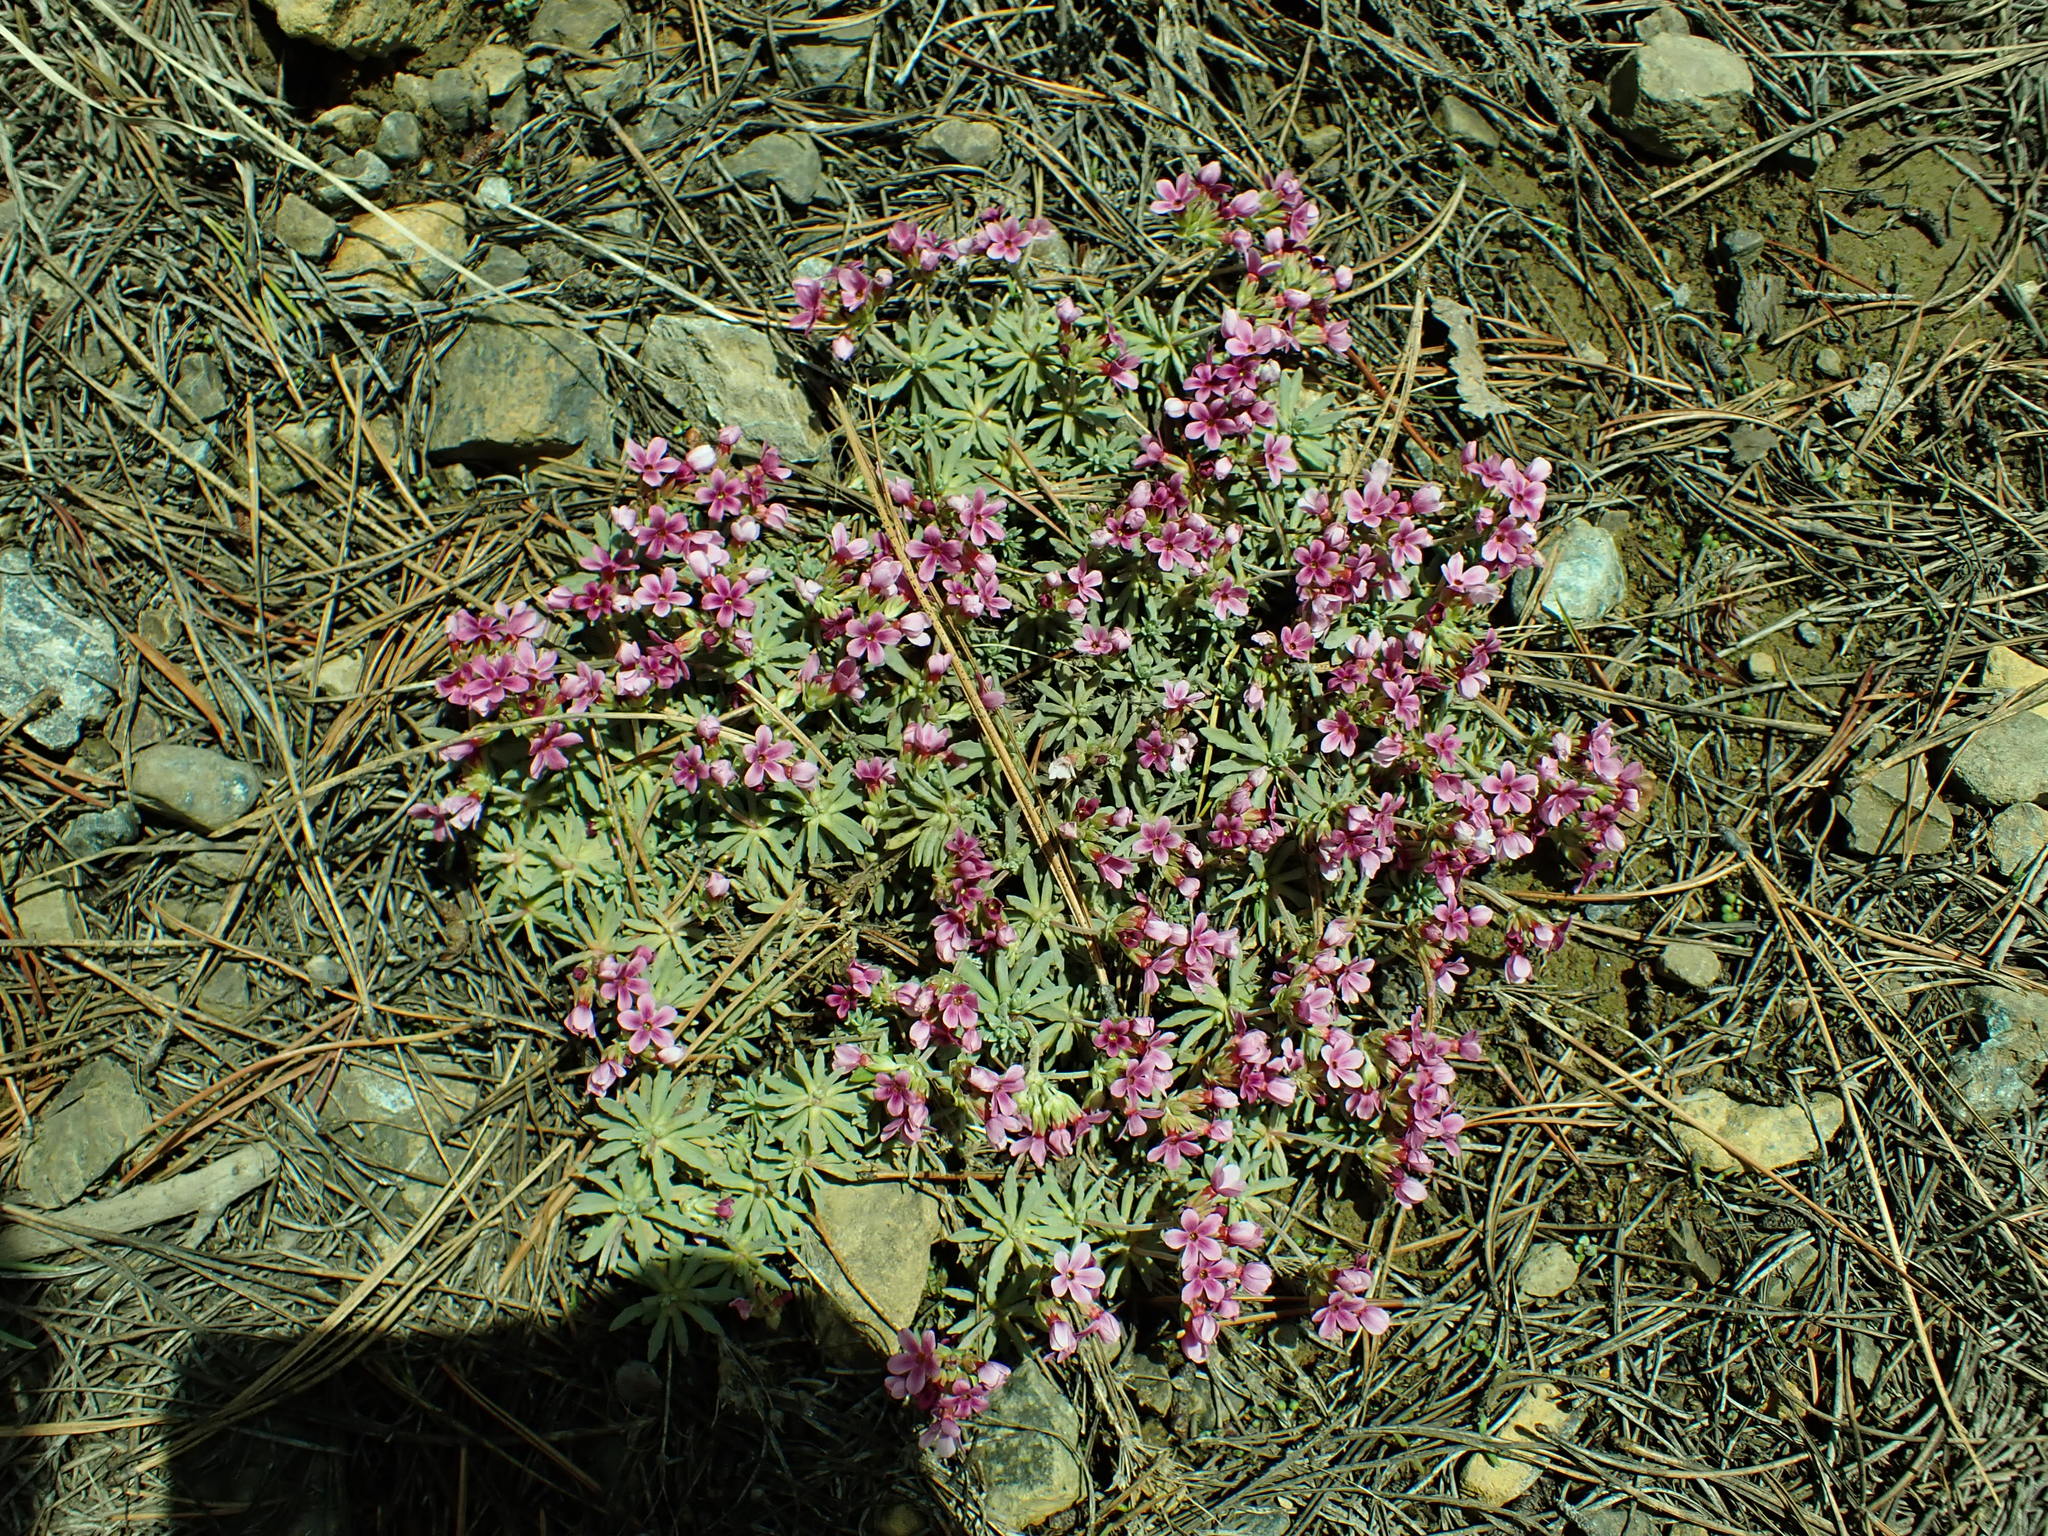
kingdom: Plantae
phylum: Tracheophyta
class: Magnoliopsida
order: Ericales
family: Primulaceae
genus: Androsace
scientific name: Androsace nivalis
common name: Snow dwarf-primrose
